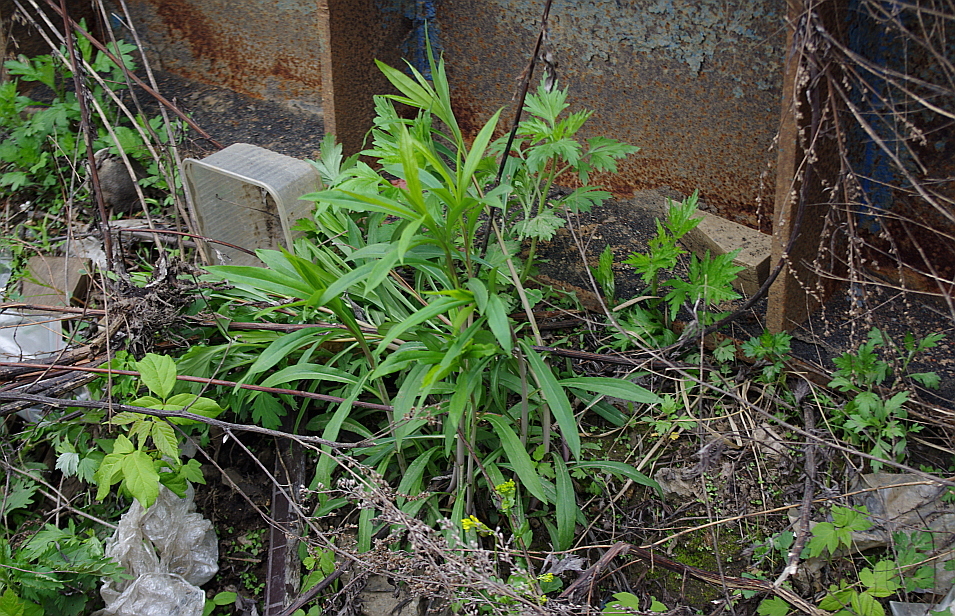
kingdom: Plantae
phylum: Tracheophyta
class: Magnoliopsida
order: Asterales
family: Asteraceae
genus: Solidago
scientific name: Solidago gigantea
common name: Giant goldenrod
